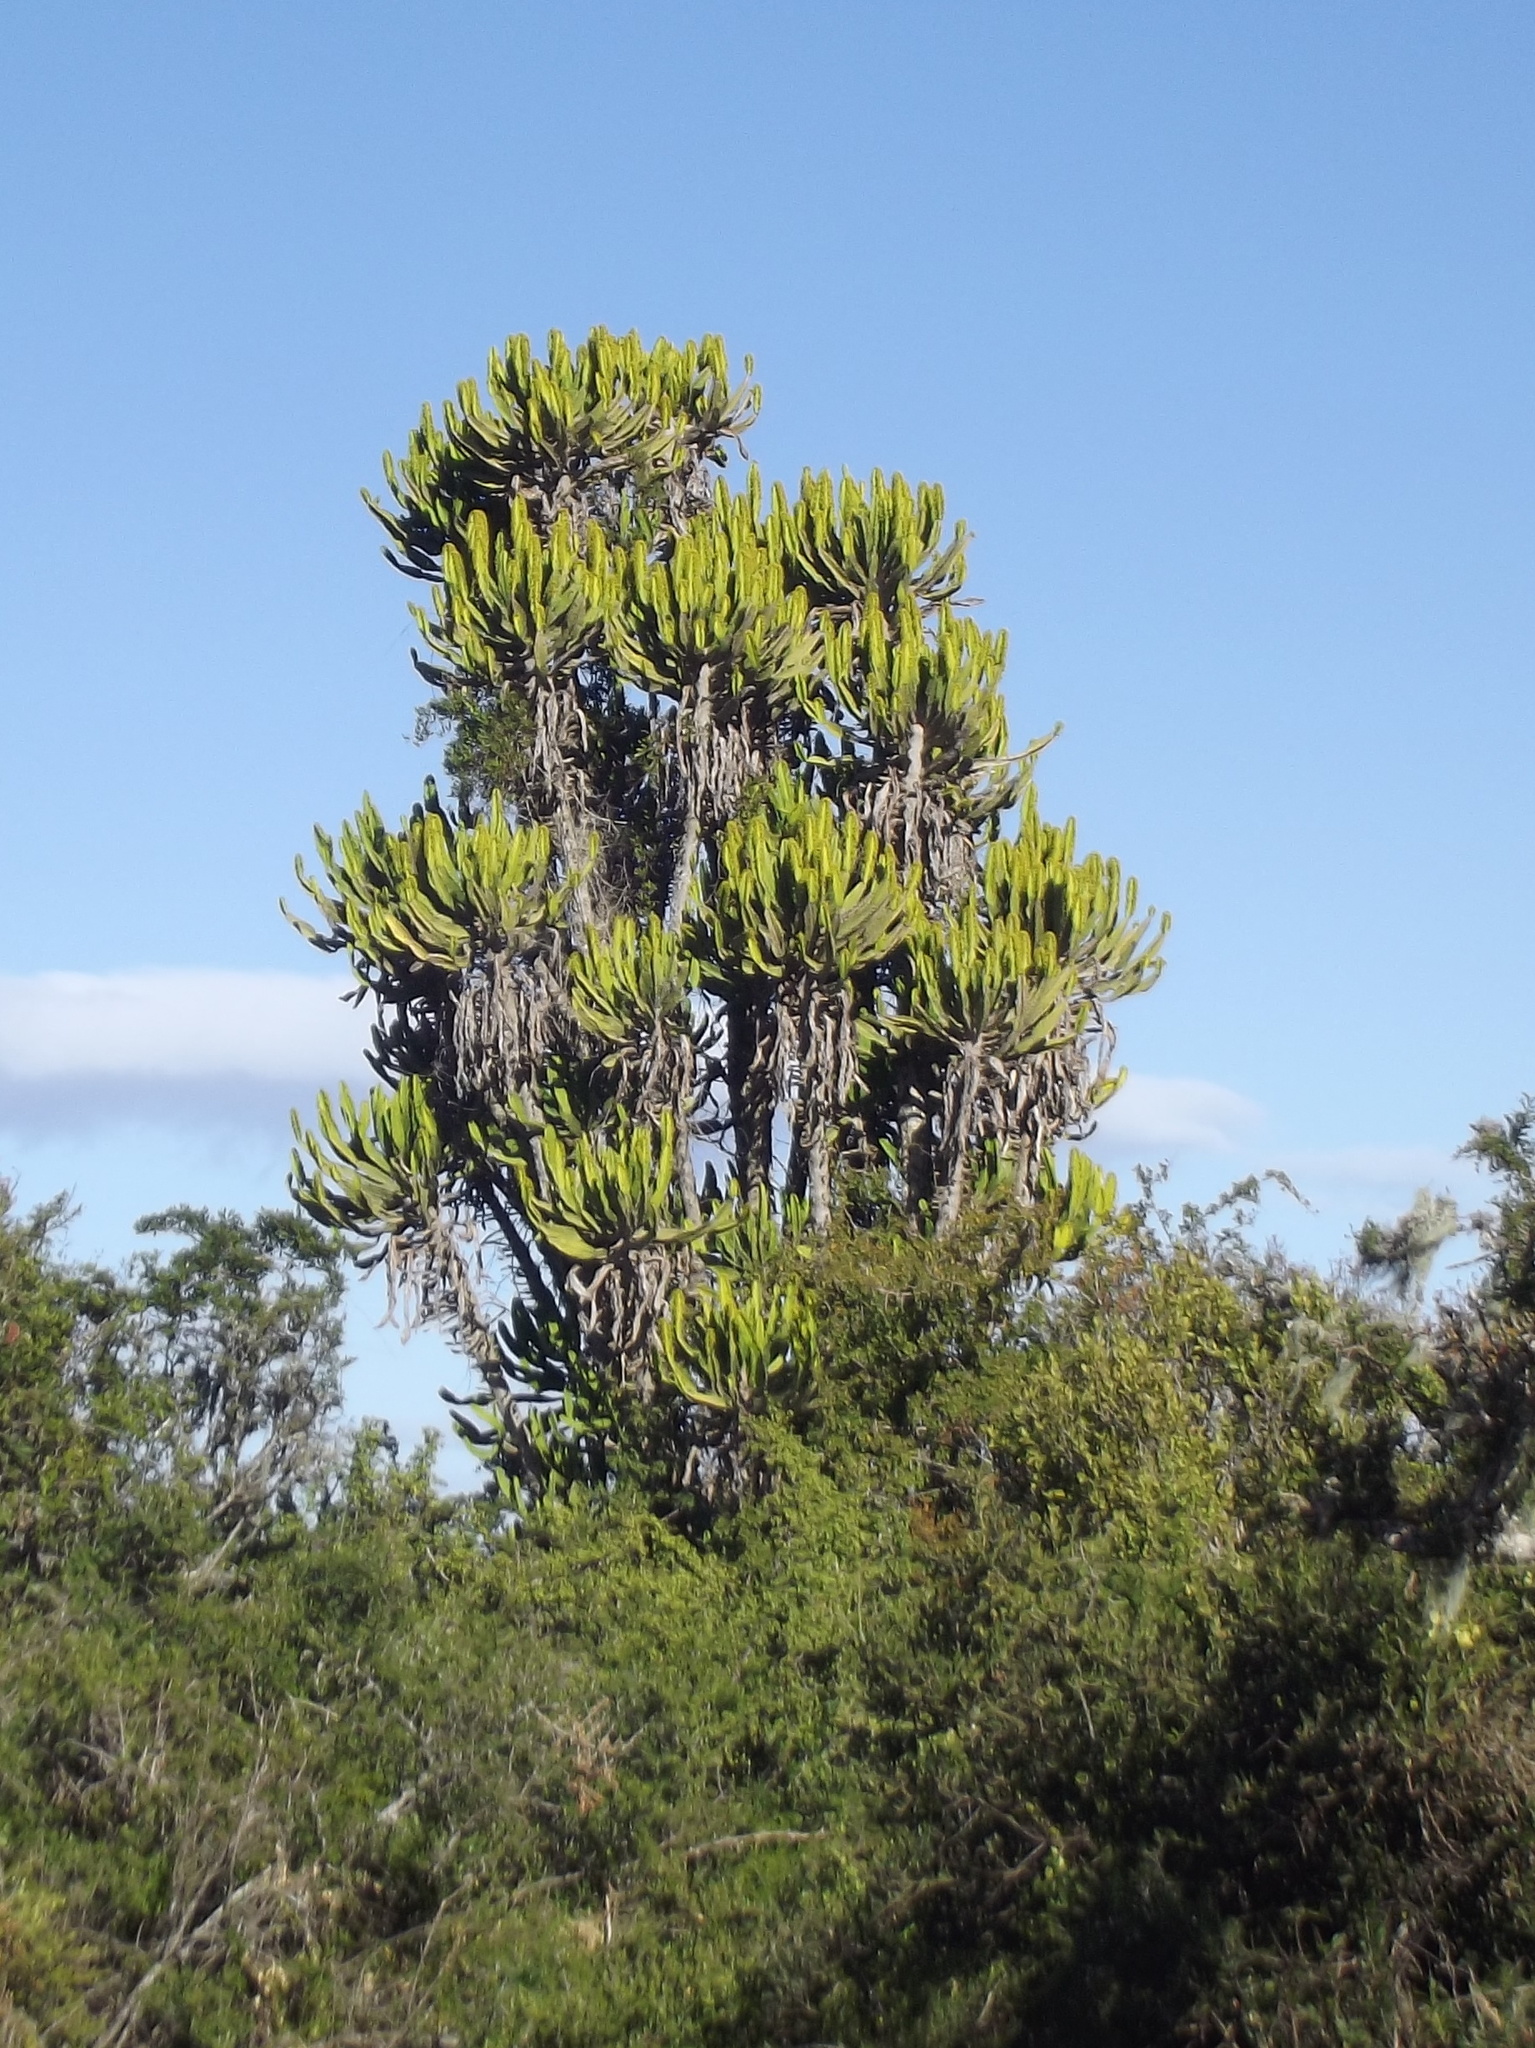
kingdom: Plantae
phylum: Tracheophyta
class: Magnoliopsida
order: Malpighiales
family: Euphorbiaceae
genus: Euphorbia
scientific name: Euphorbia triangularis
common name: Chandelier tree
